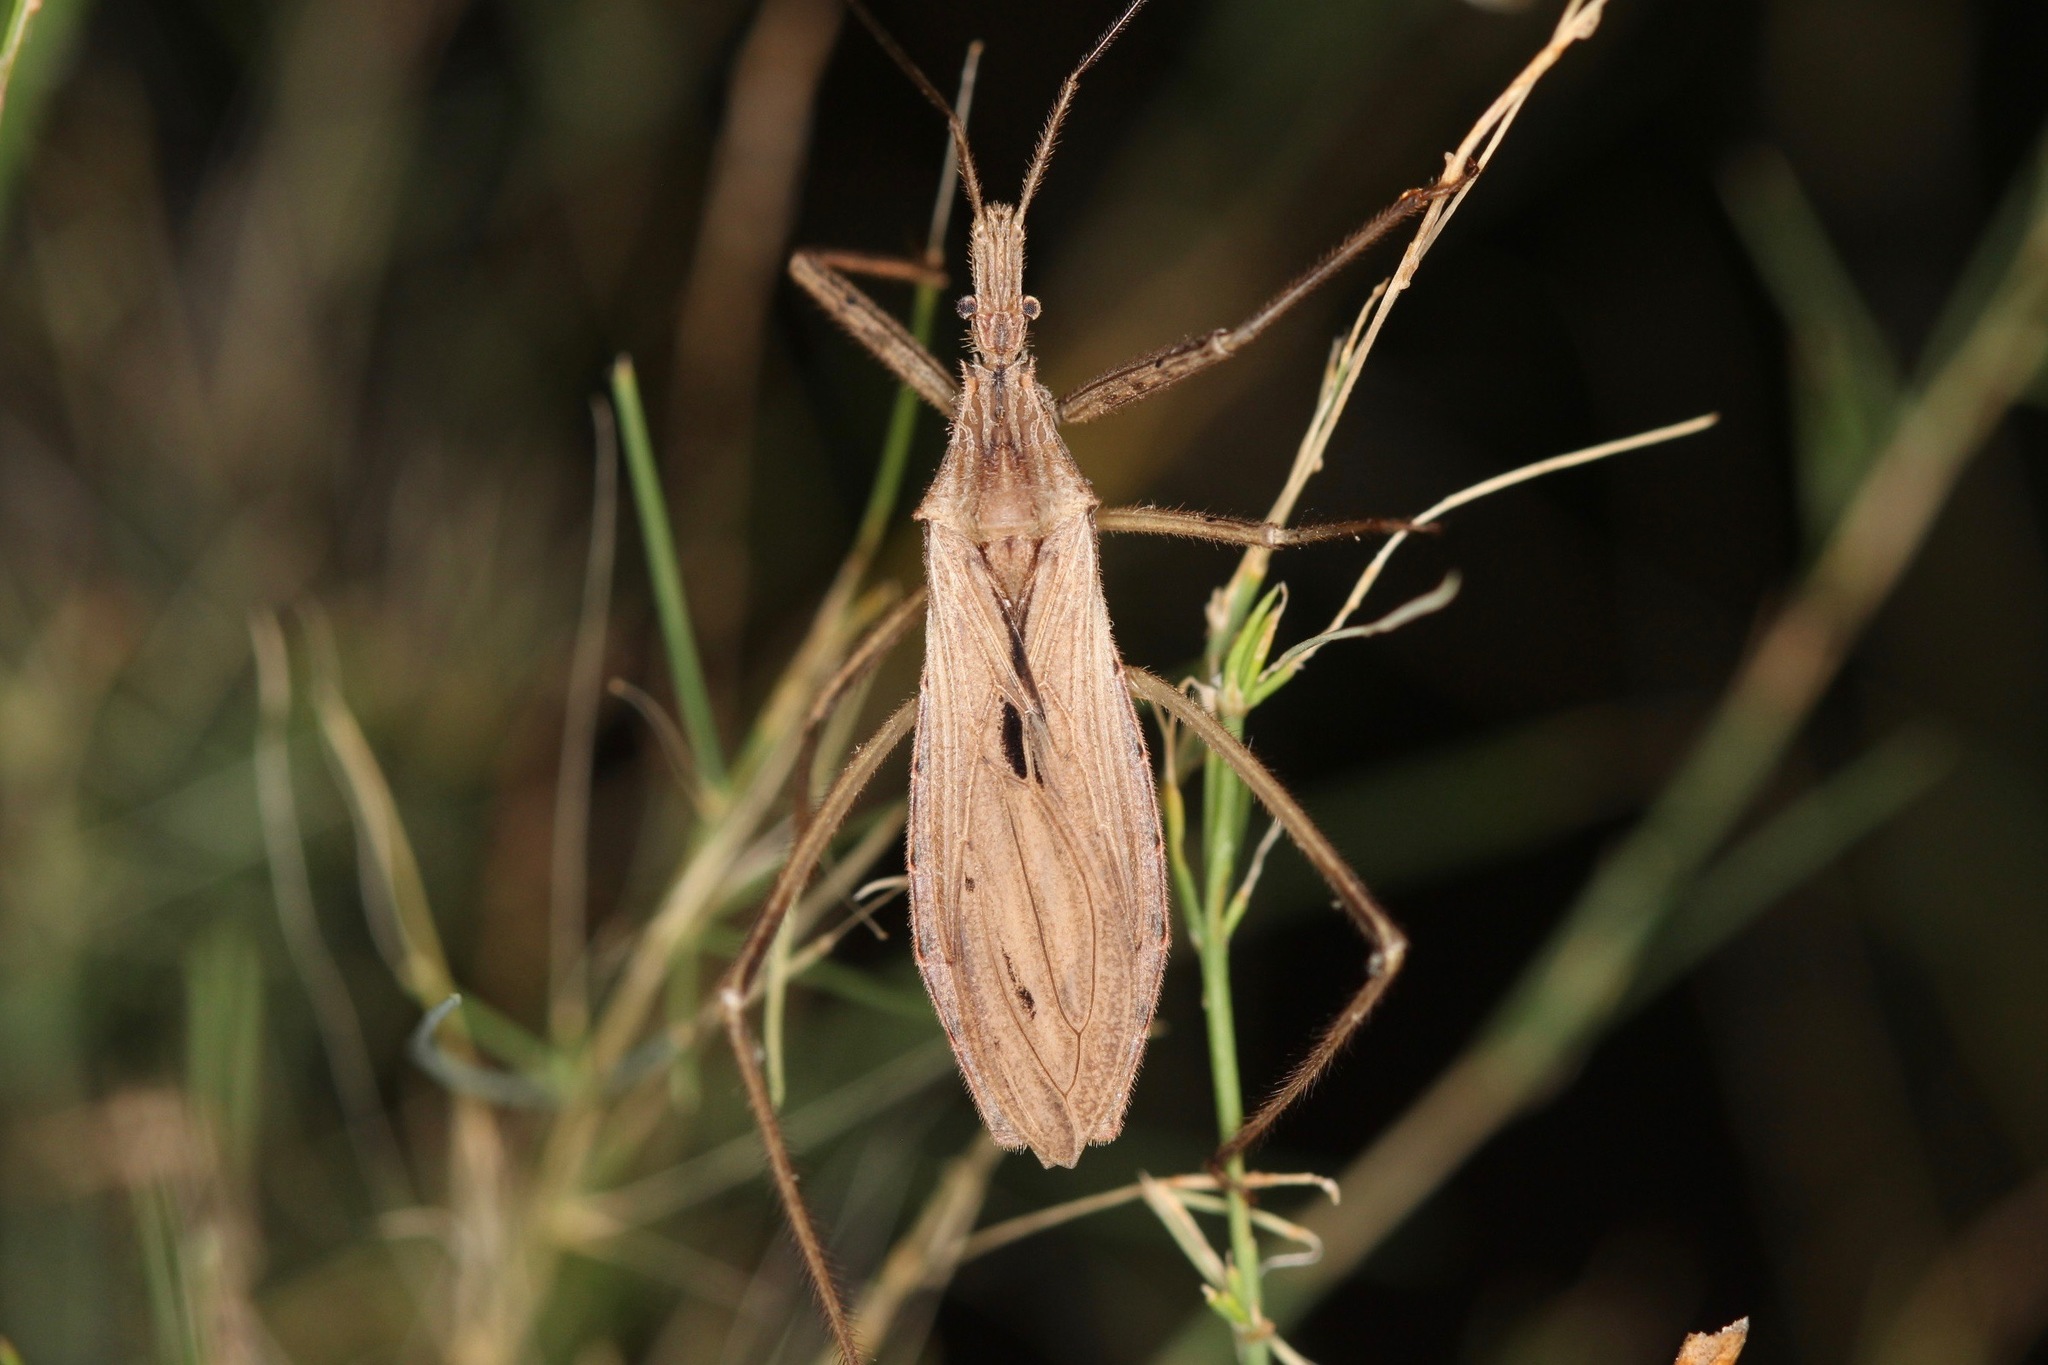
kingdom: Animalia
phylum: Arthropoda
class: Insecta
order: Hemiptera
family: Reduviidae
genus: Stenopoda
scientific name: Stenopoda spinulosa
